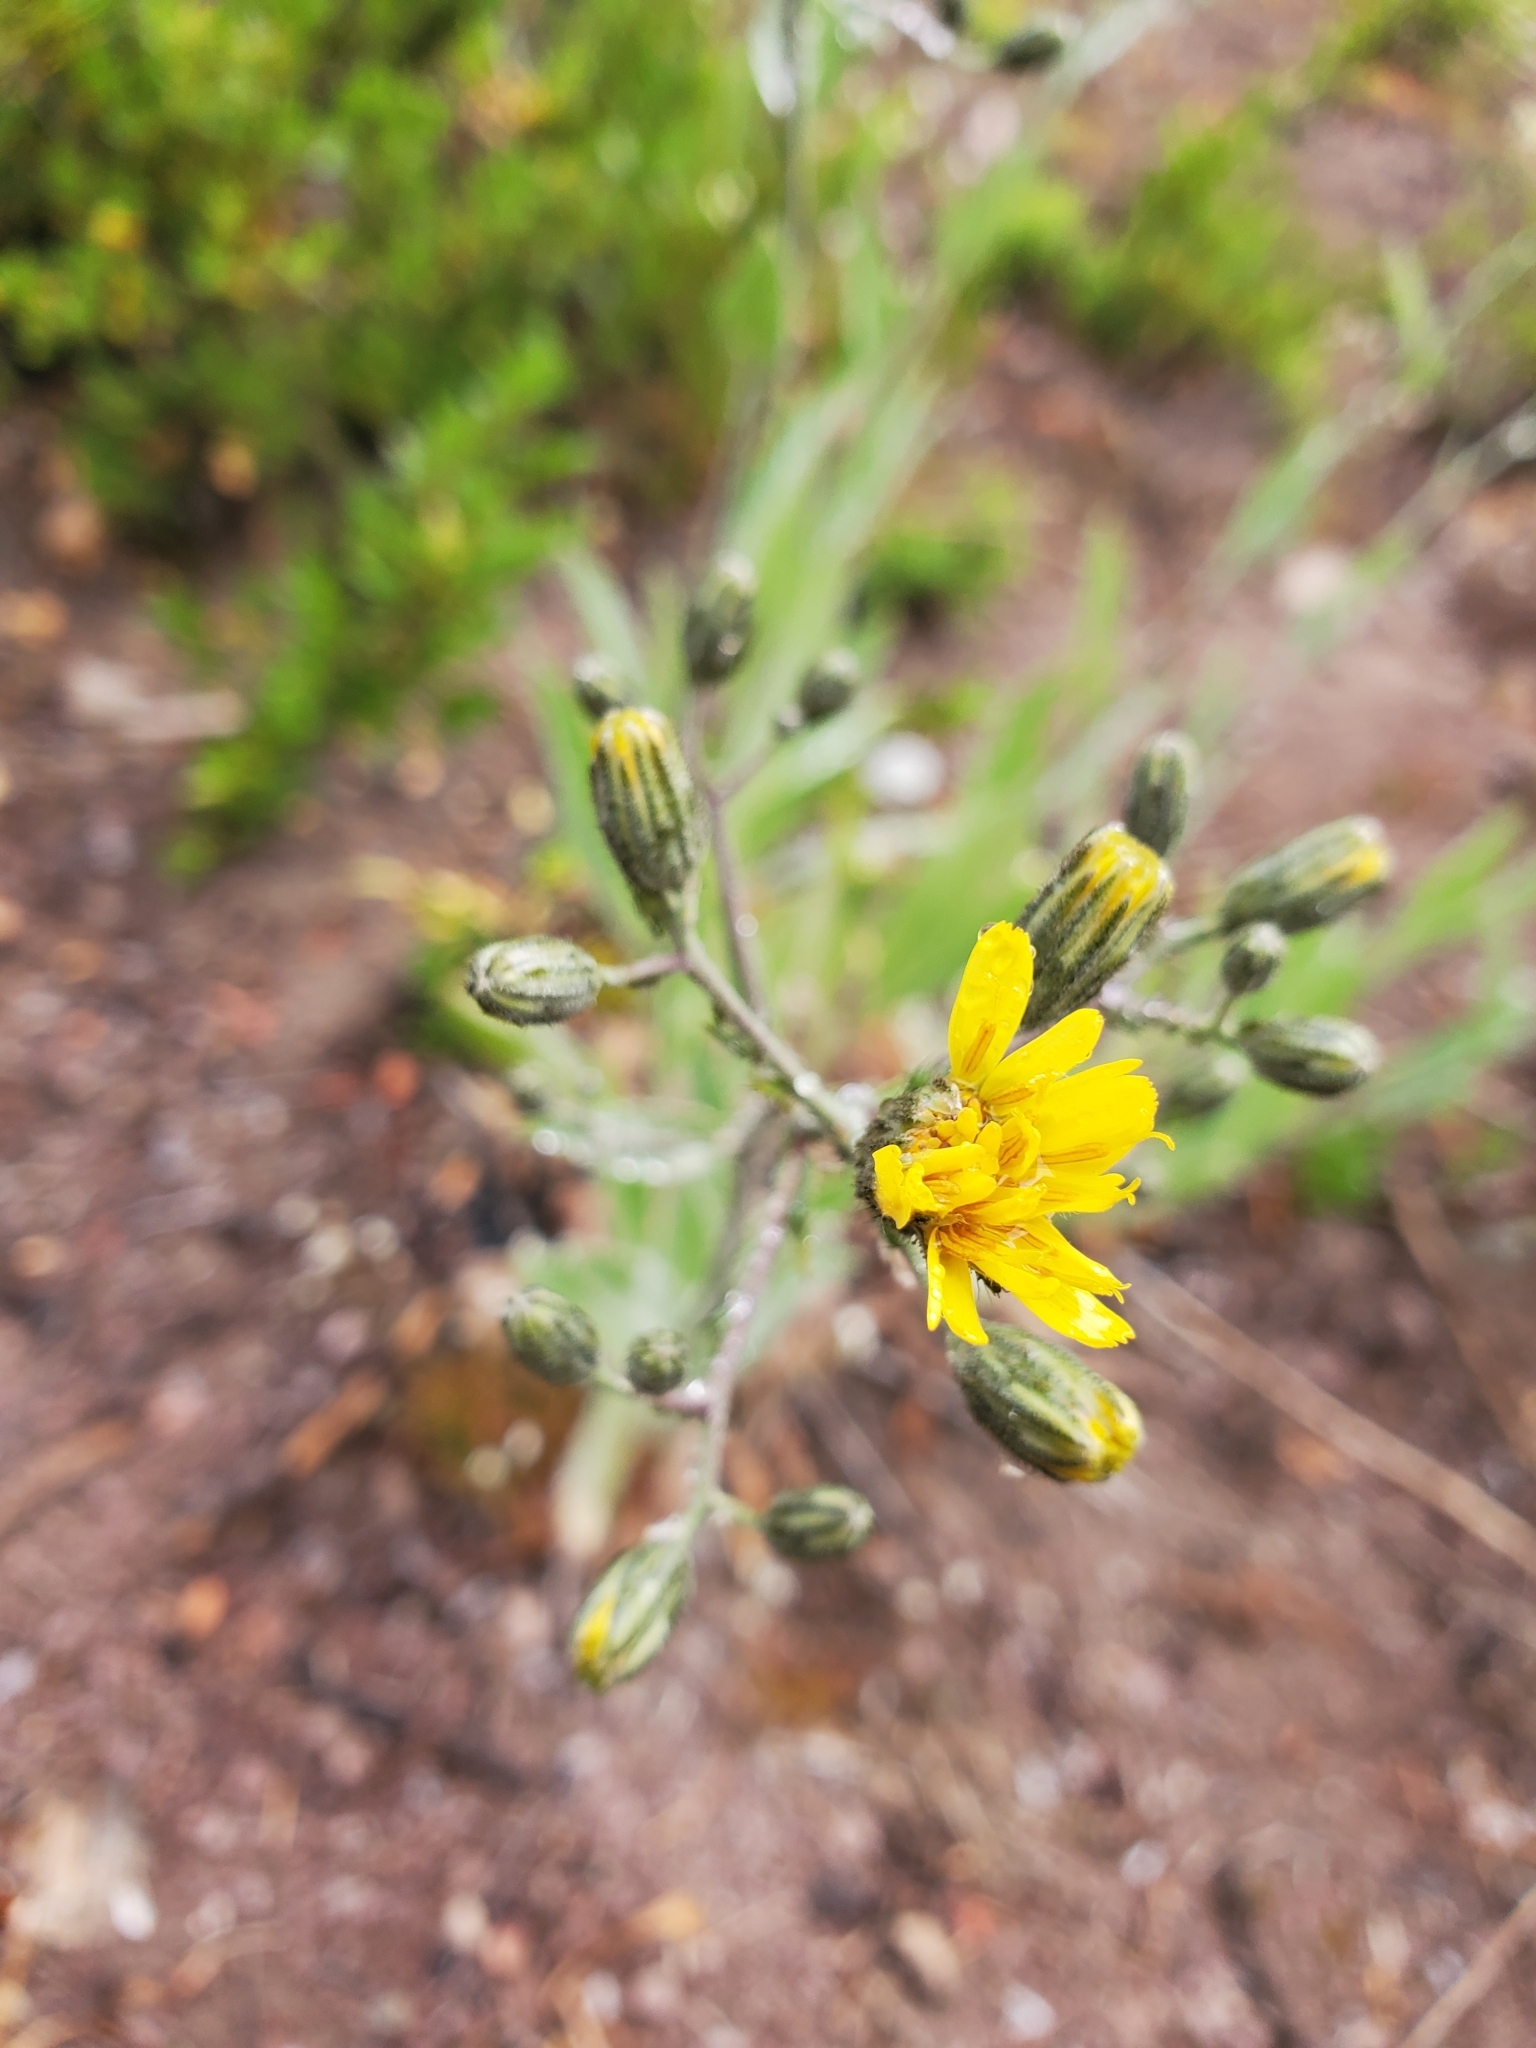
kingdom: Plantae
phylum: Tracheophyta
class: Magnoliopsida
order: Asterales
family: Asteraceae
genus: Crepis
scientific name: Crepis tectorum
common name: Narrow-leaved hawk's-beard
